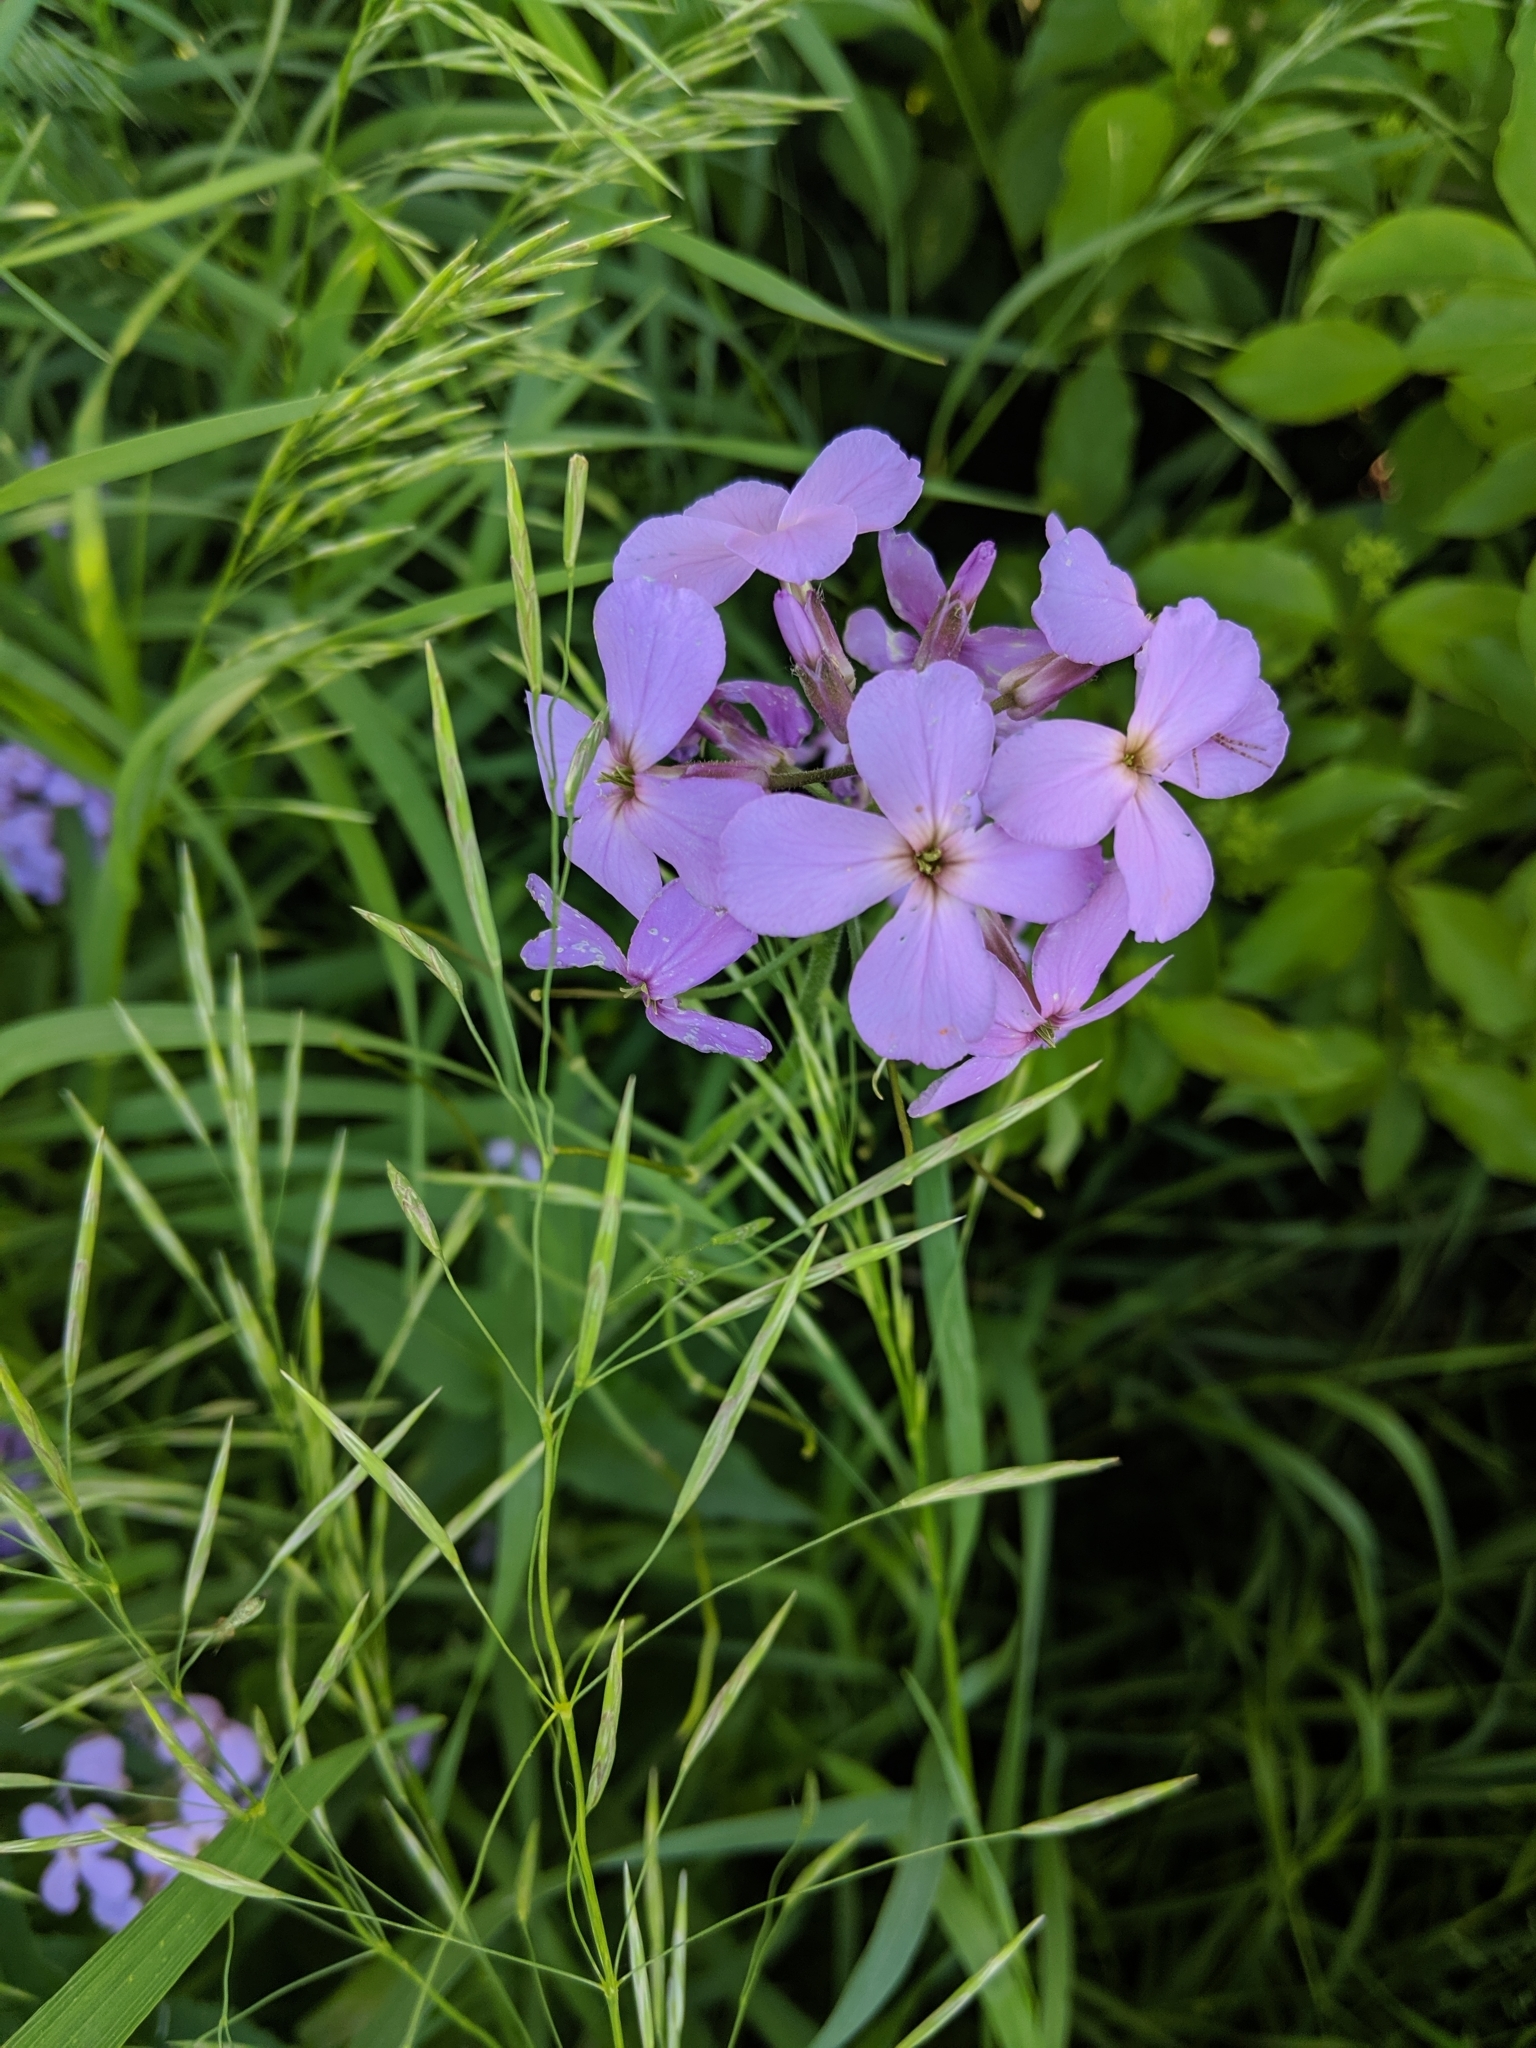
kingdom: Plantae
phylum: Tracheophyta
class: Magnoliopsida
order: Brassicales
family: Brassicaceae
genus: Hesperis
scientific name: Hesperis matronalis
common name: Dame's-violet
